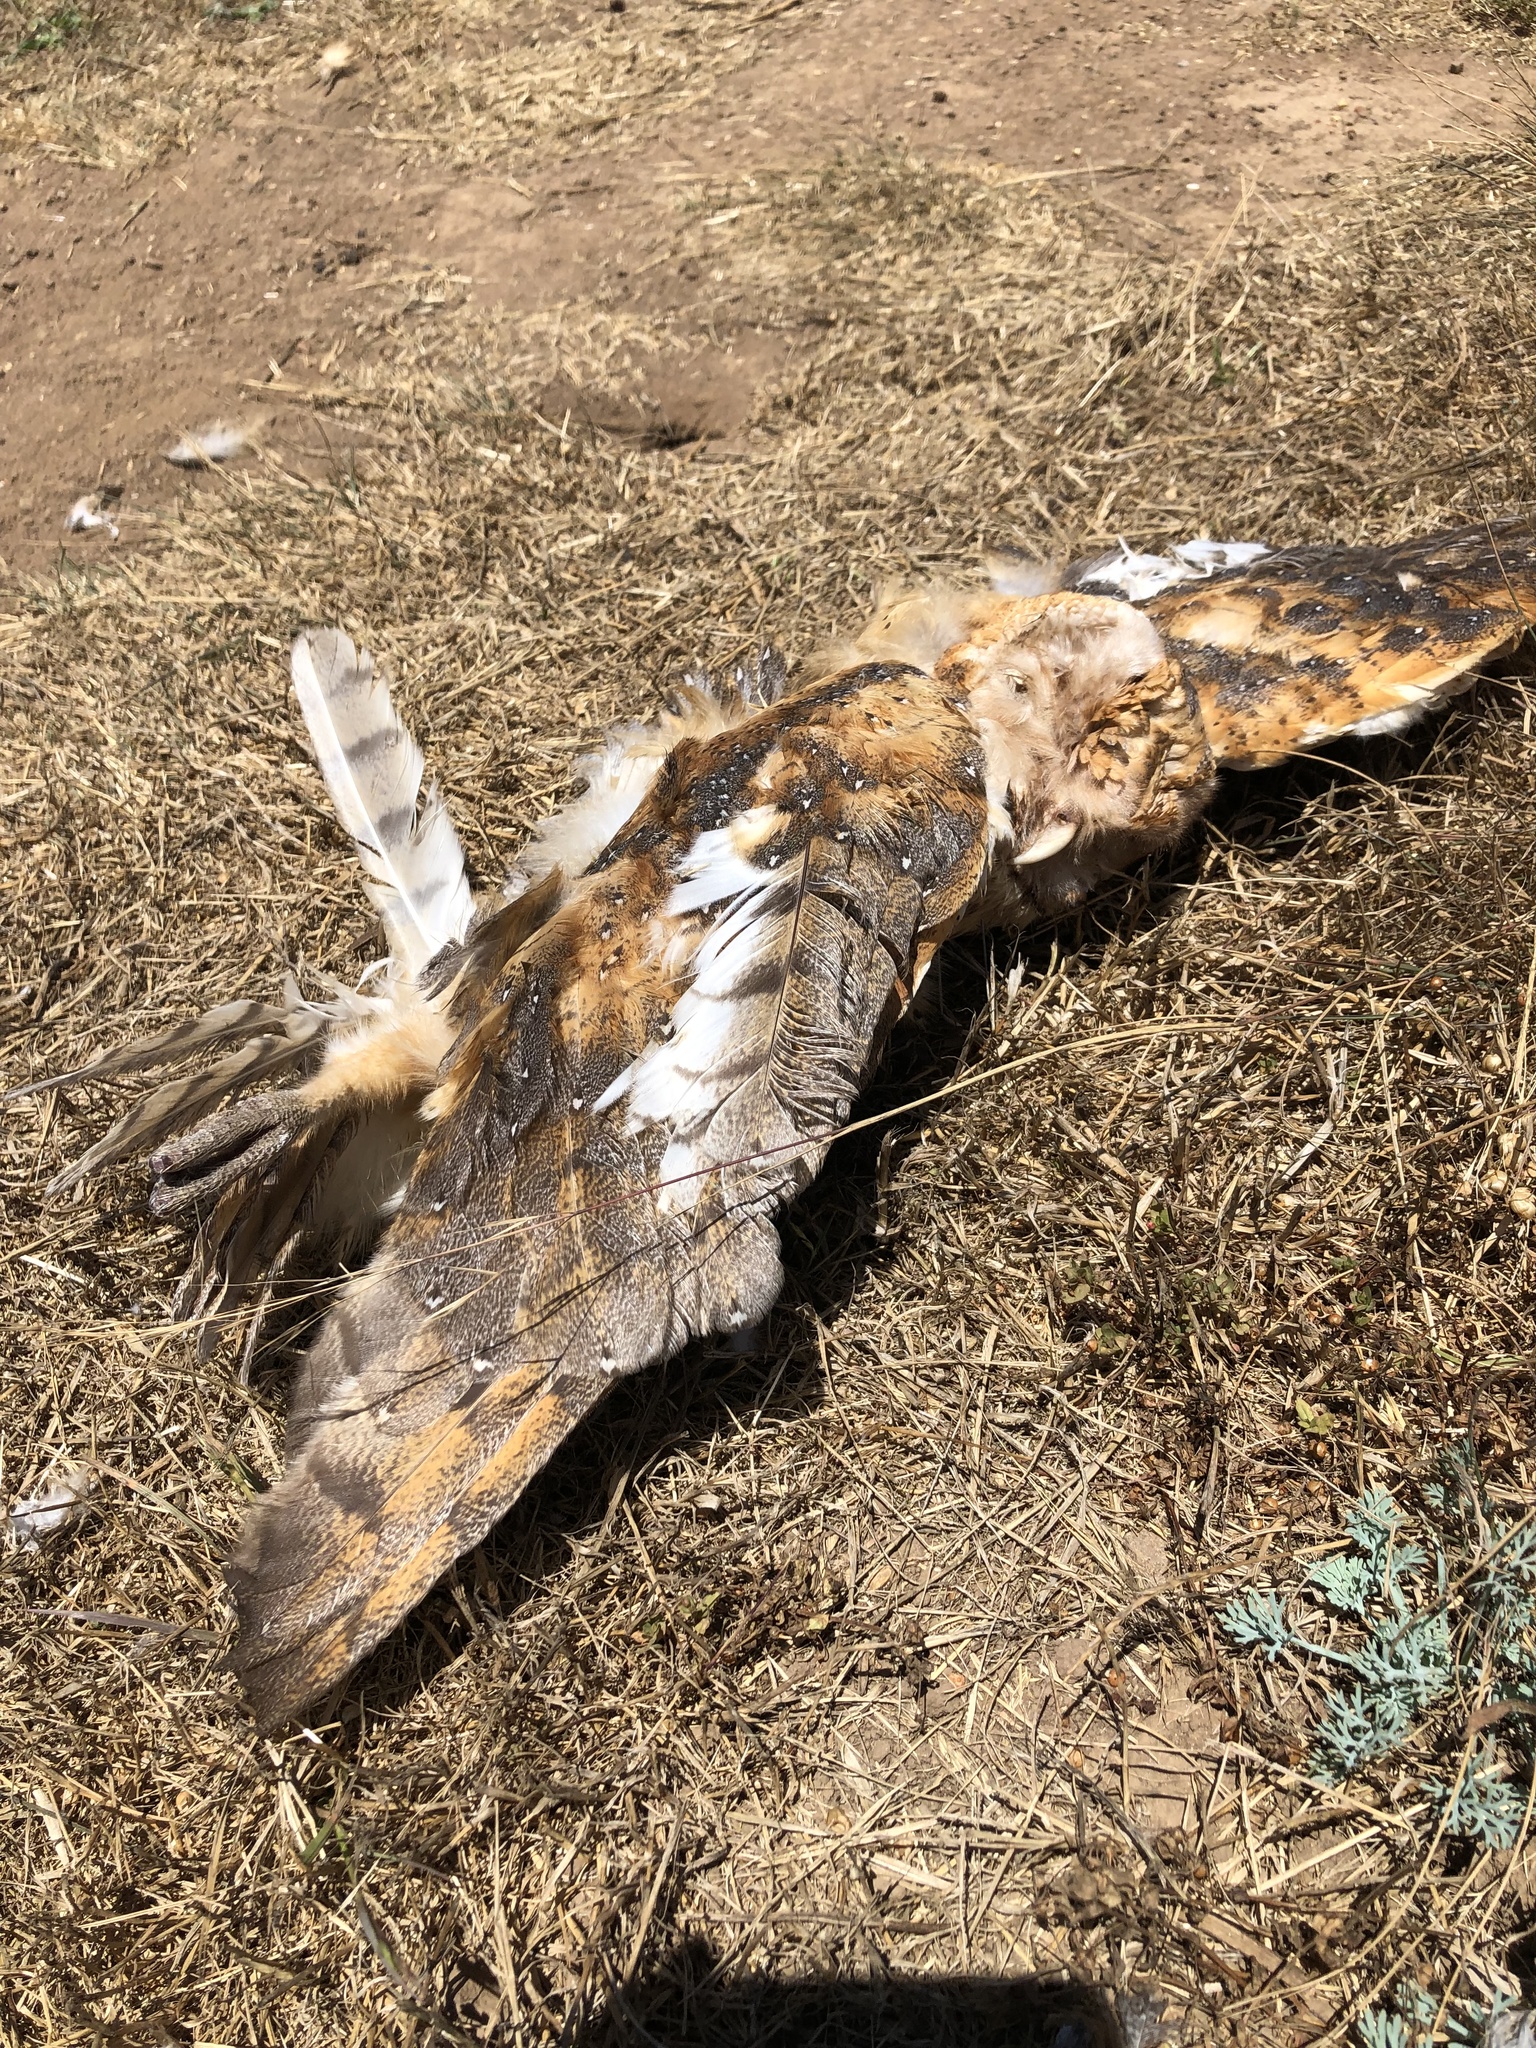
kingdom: Animalia
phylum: Chordata
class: Aves
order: Strigiformes
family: Tytonidae
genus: Tyto
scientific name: Tyto alba
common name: Barn owl
